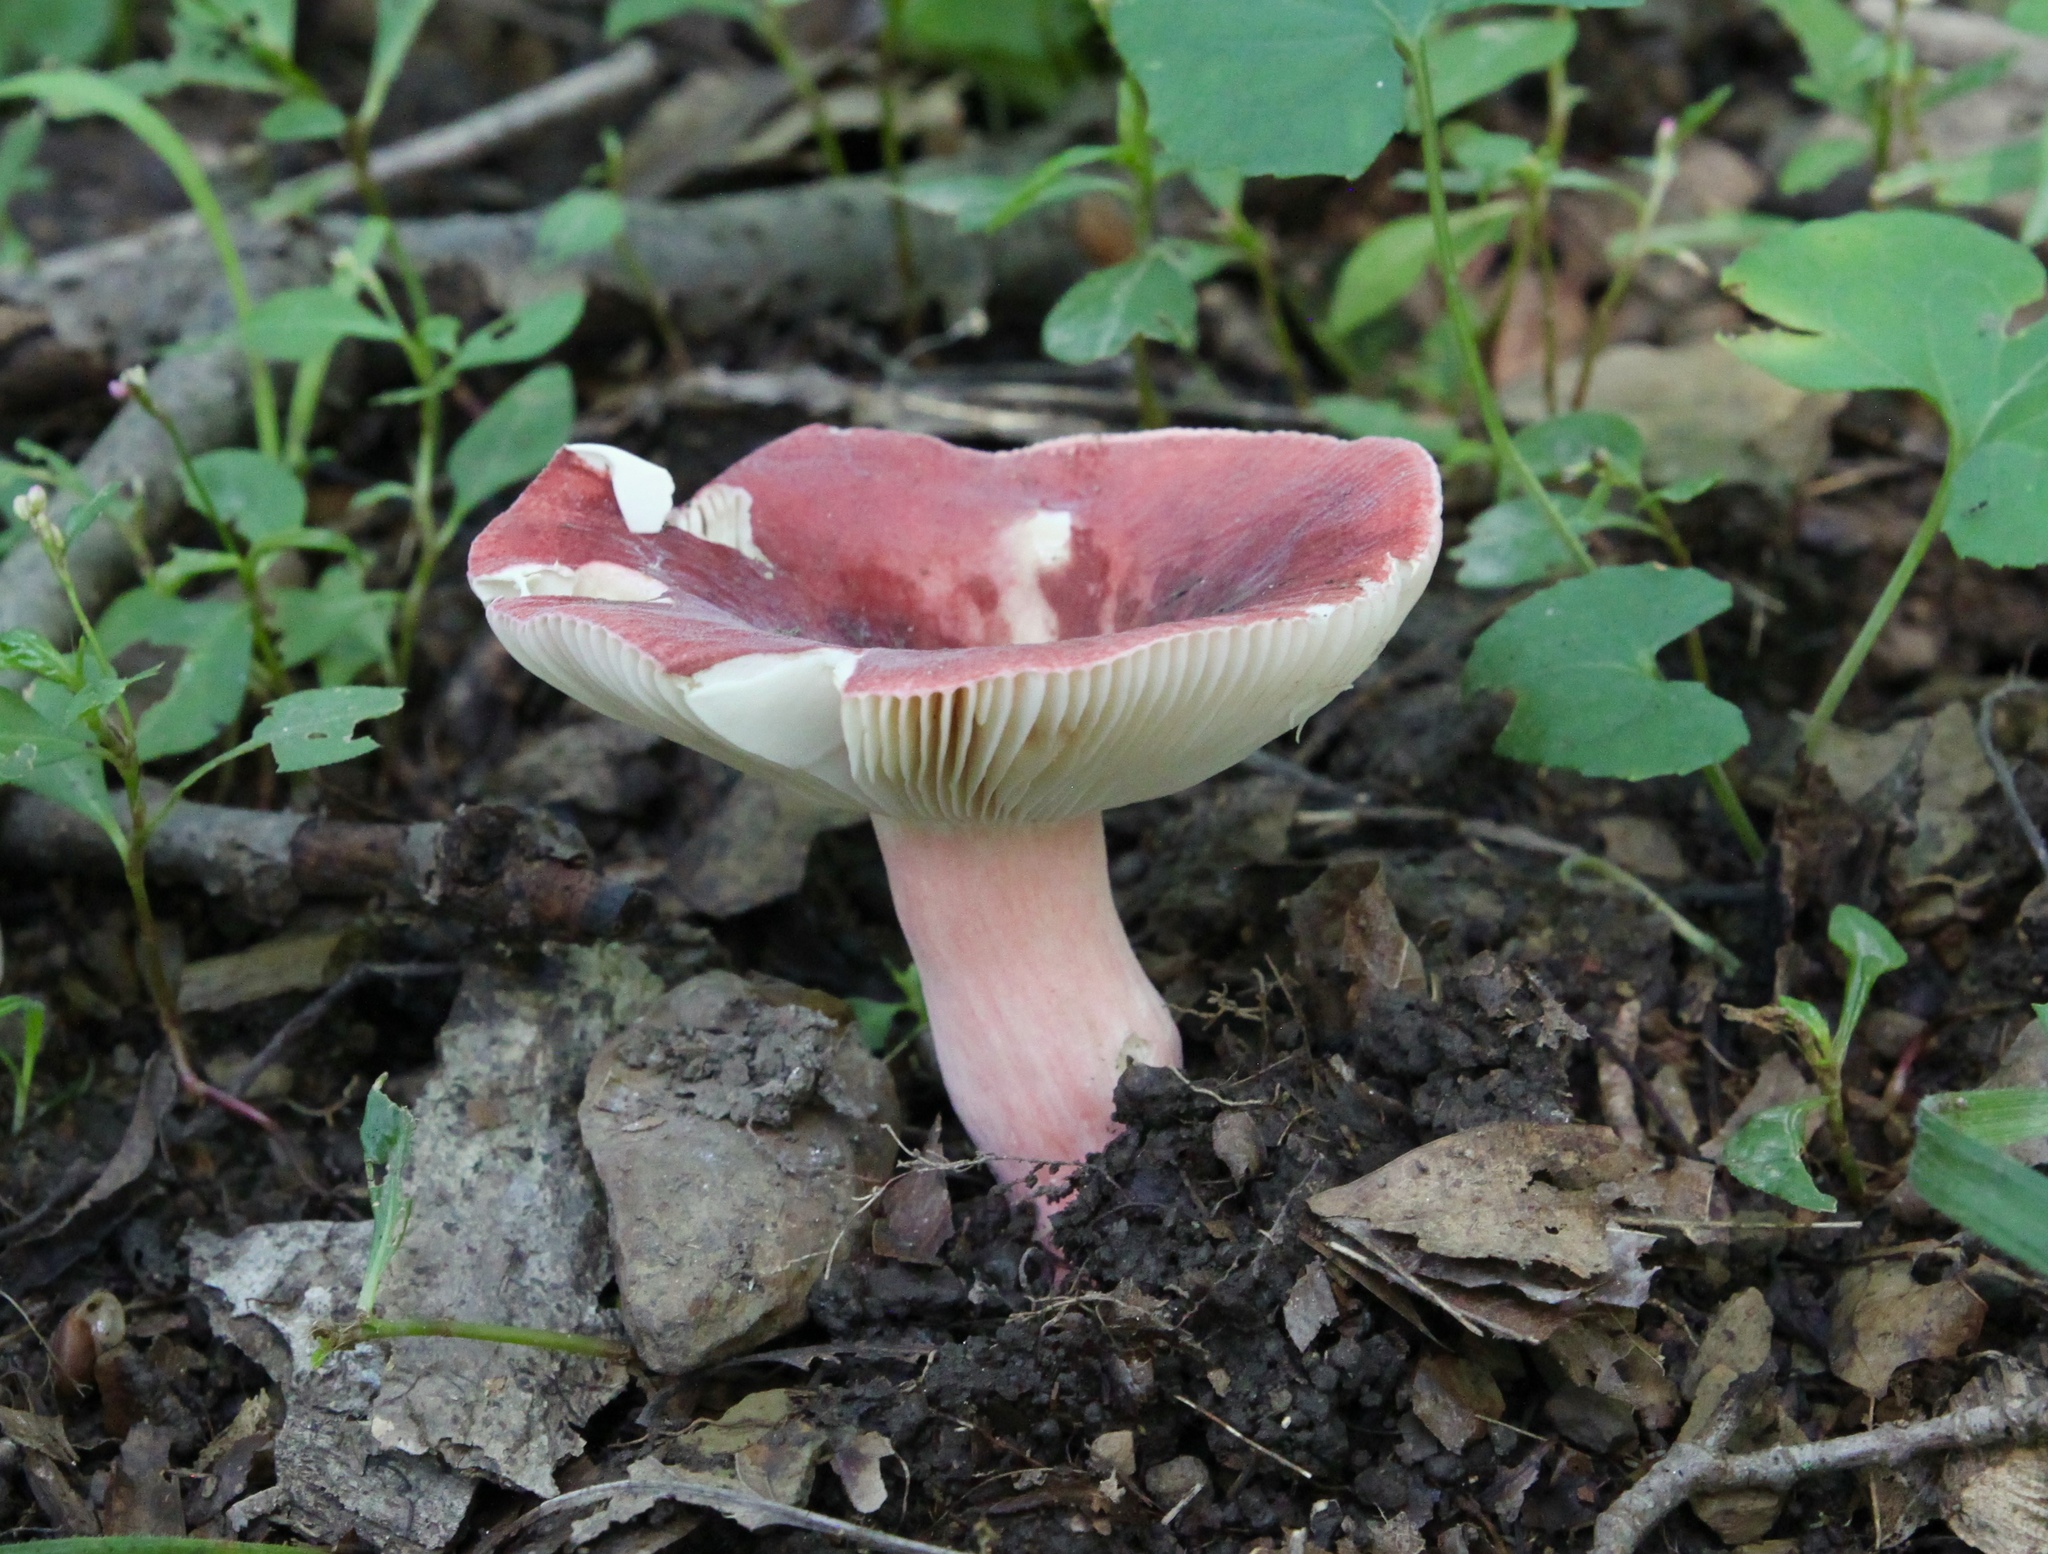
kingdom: Fungi
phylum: Basidiomycota
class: Agaricomycetes
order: Russulales
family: Russulaceae
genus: Russula
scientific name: Russula mariae
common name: Purple-bloom russula
